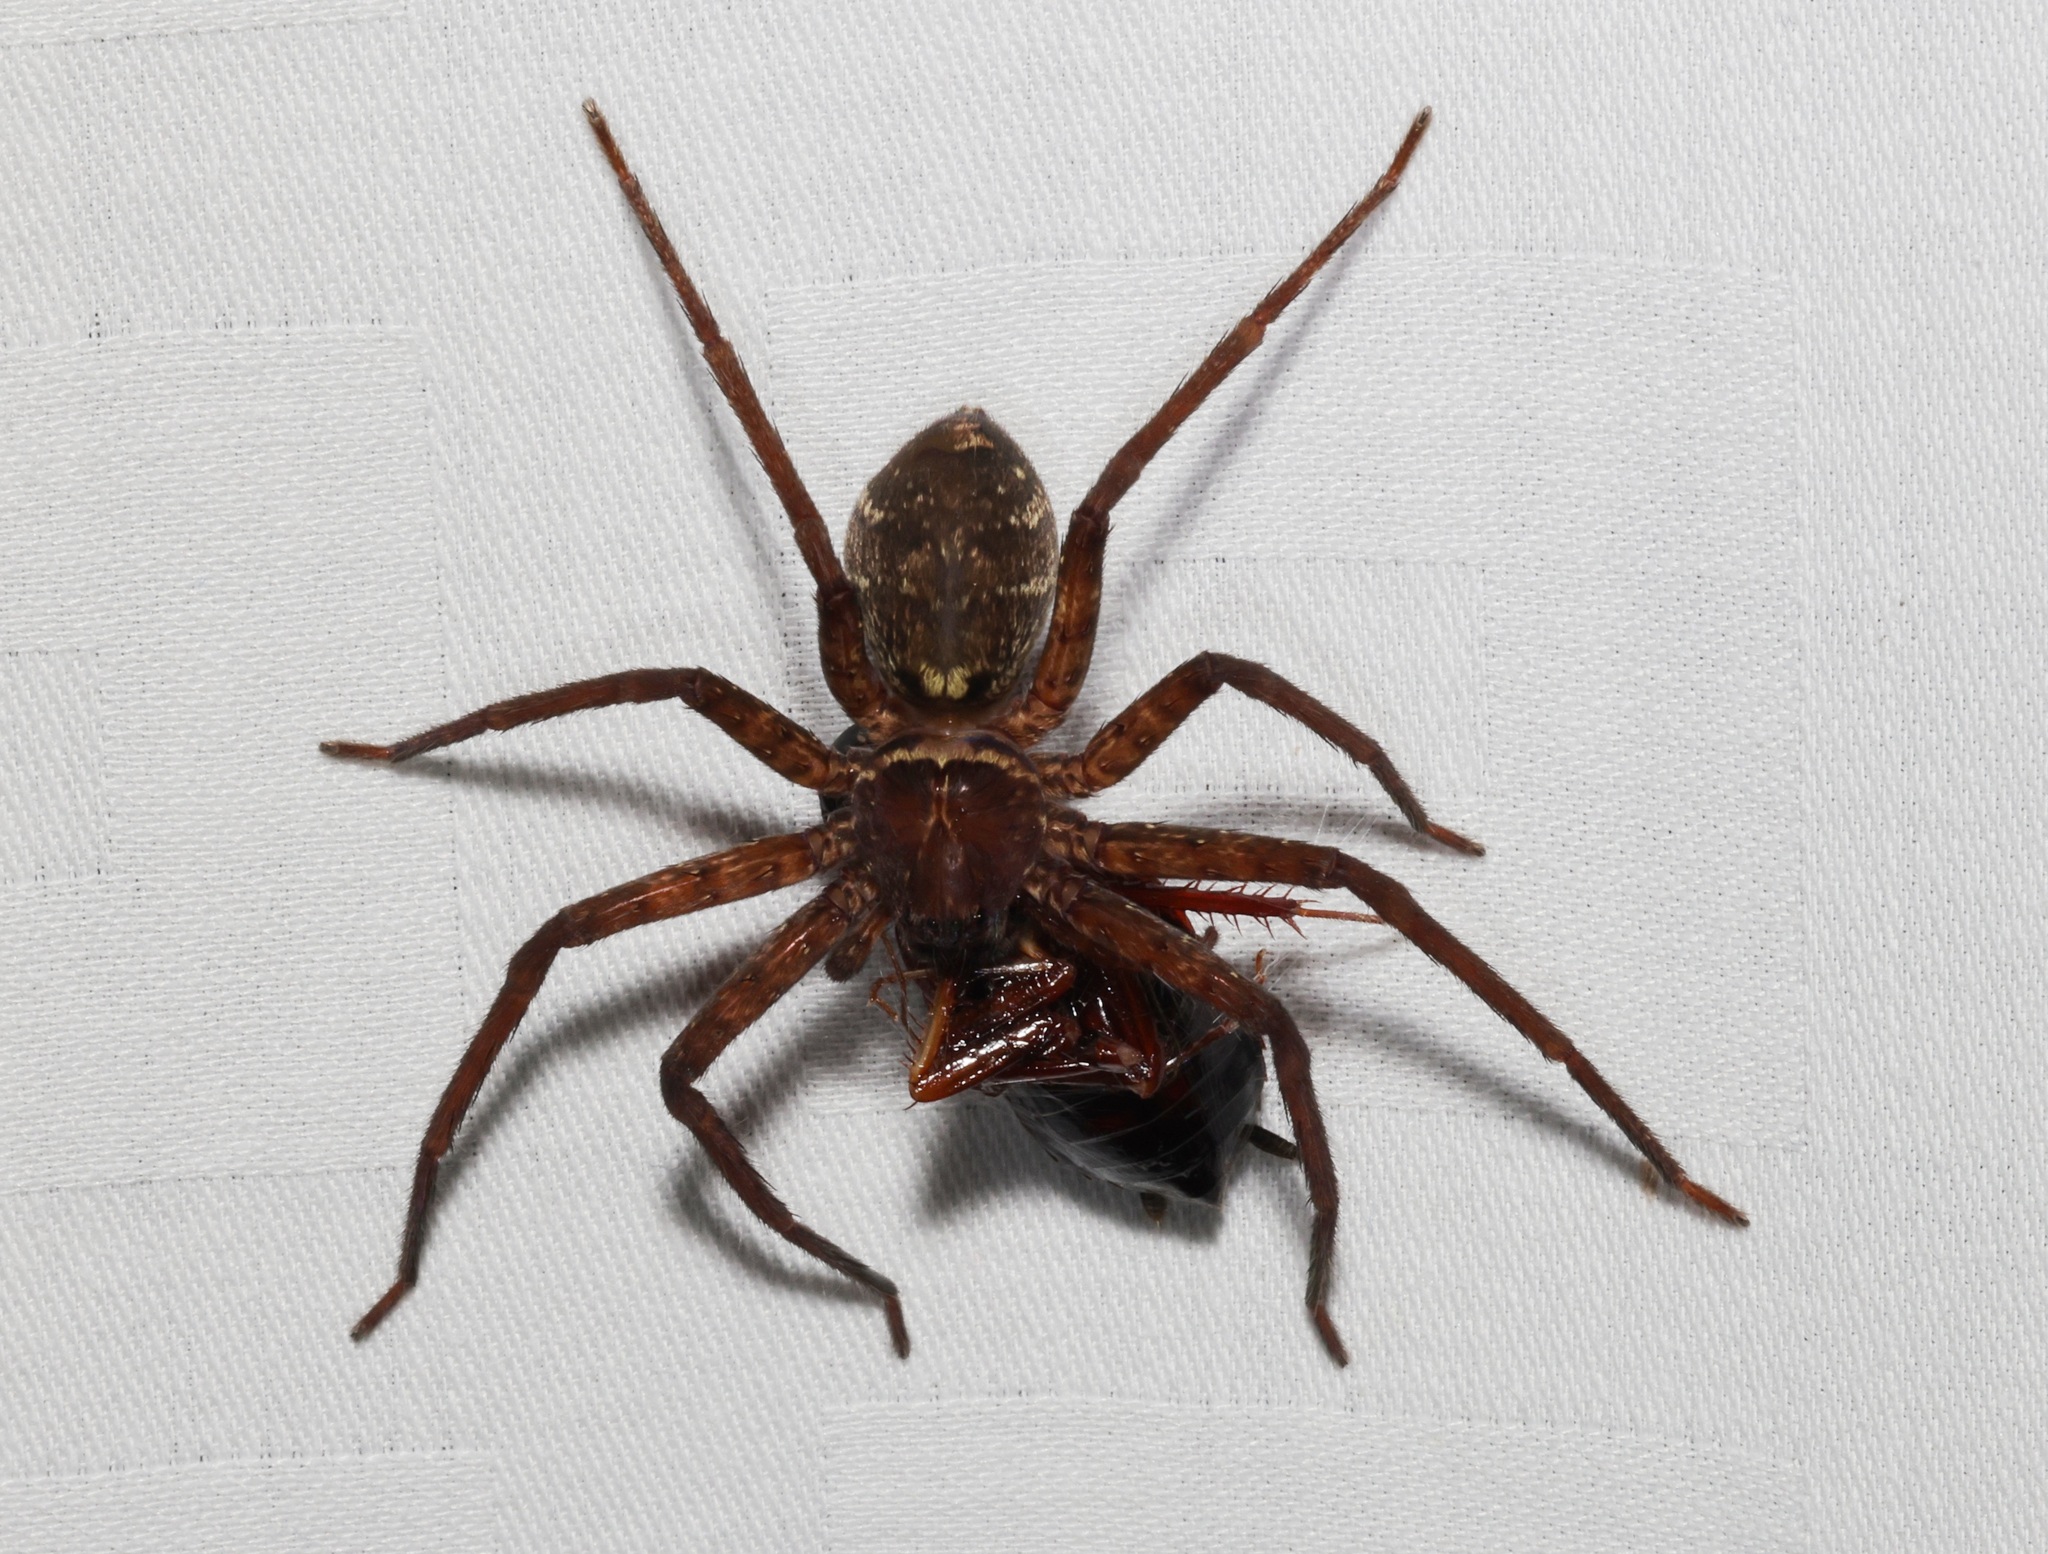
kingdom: Animalia
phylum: Arthropoda
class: Arachnida
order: Araneae
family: Sparassidae
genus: Heteropoda
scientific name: Heteropoda amphora
